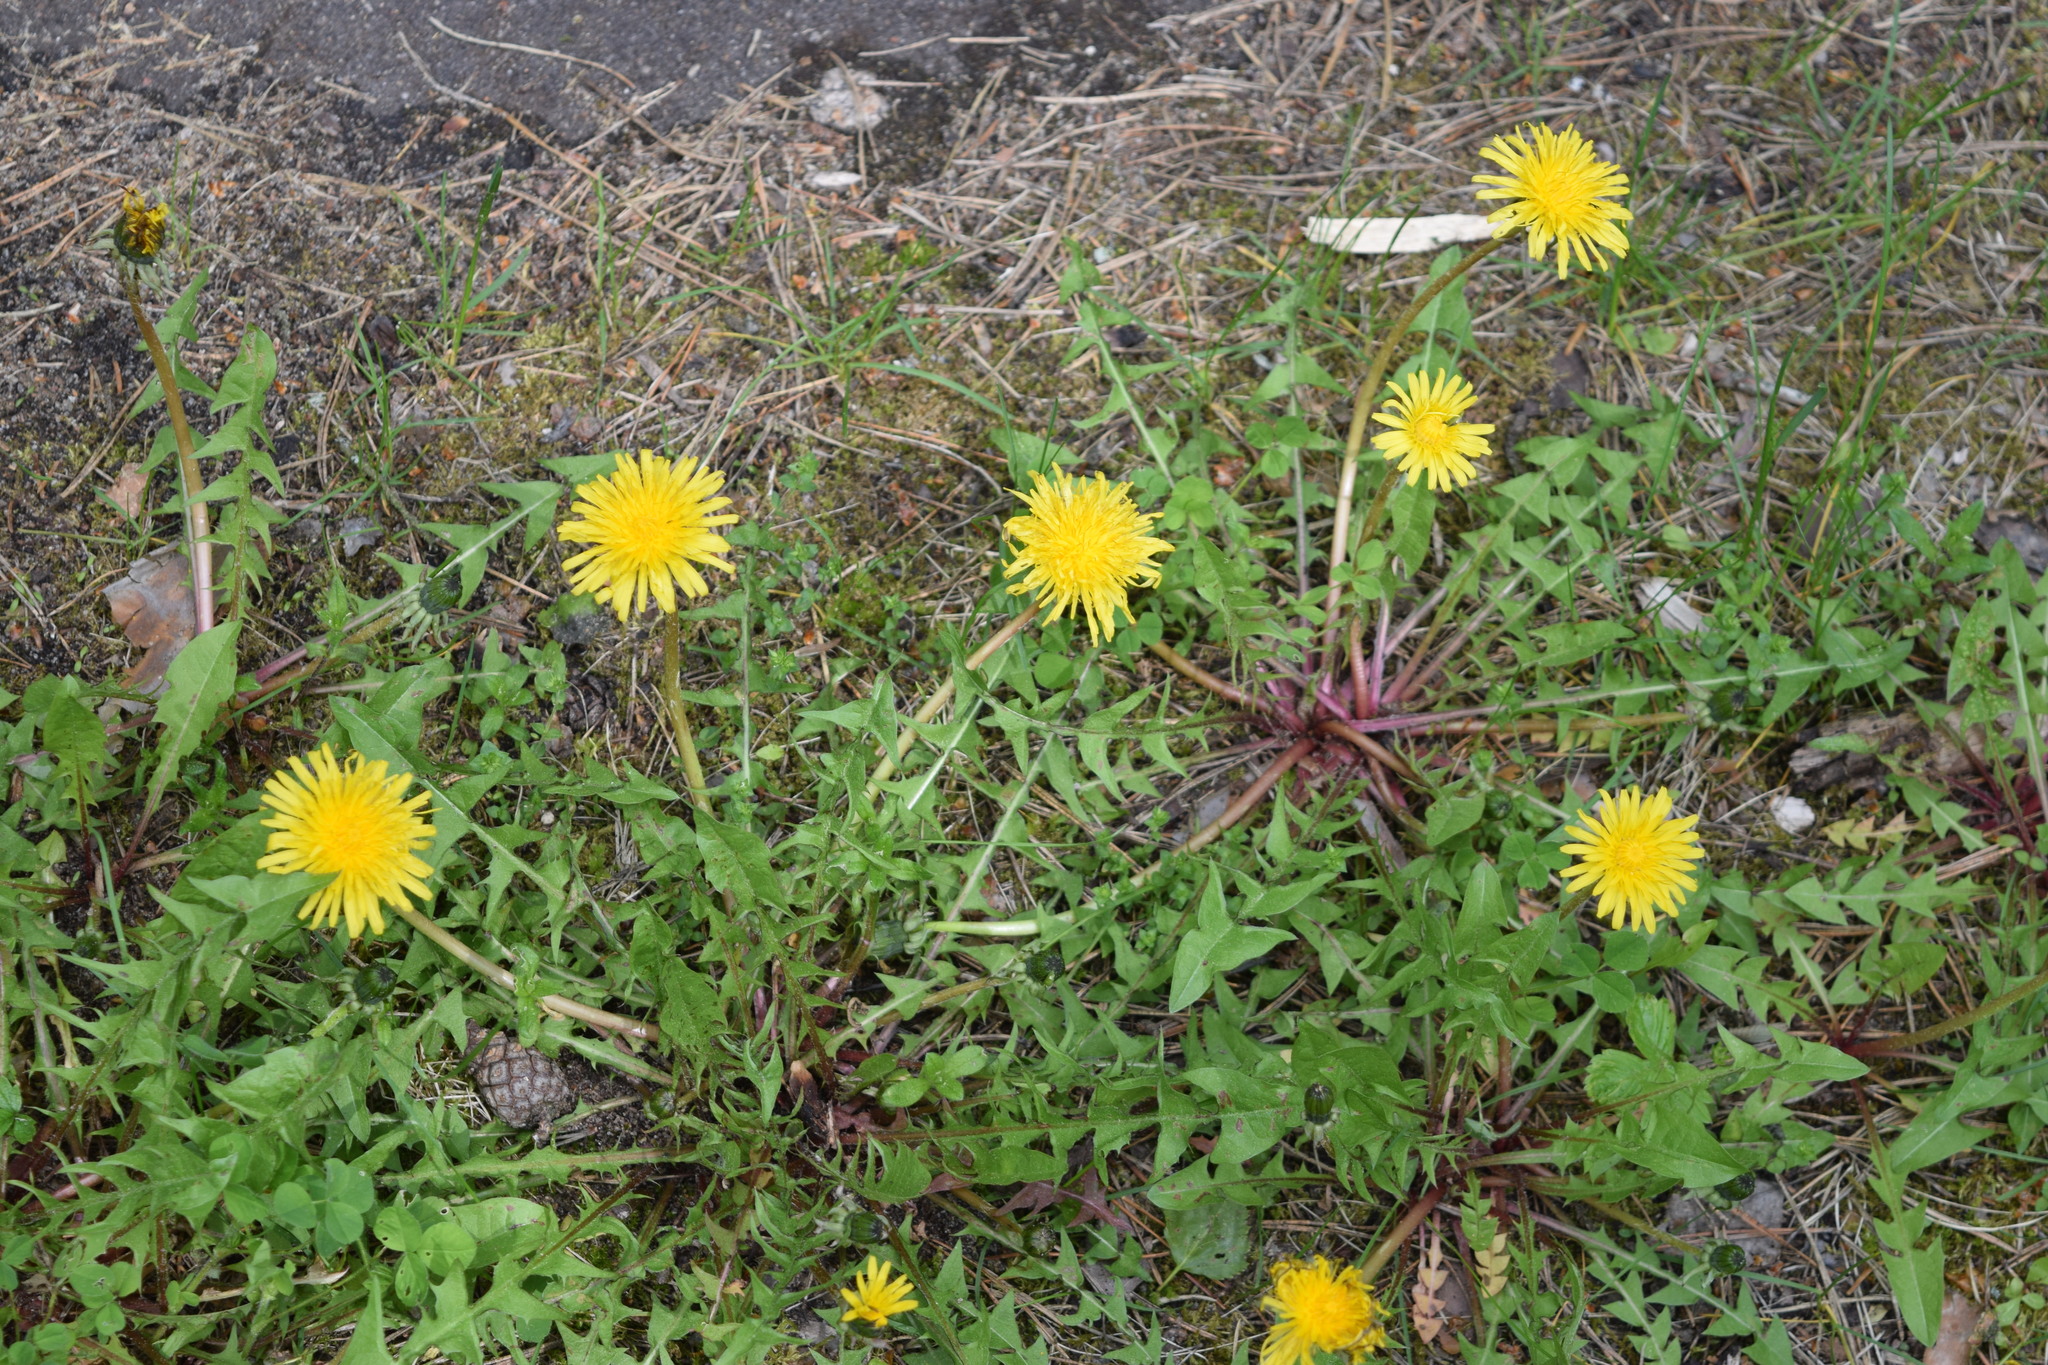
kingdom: Plantae
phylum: Tracheophyta
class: Magnoliopsida
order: Asterales
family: Asteraceae
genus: Taraxacum
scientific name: Taraxacum officinale
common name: Common dandelion
